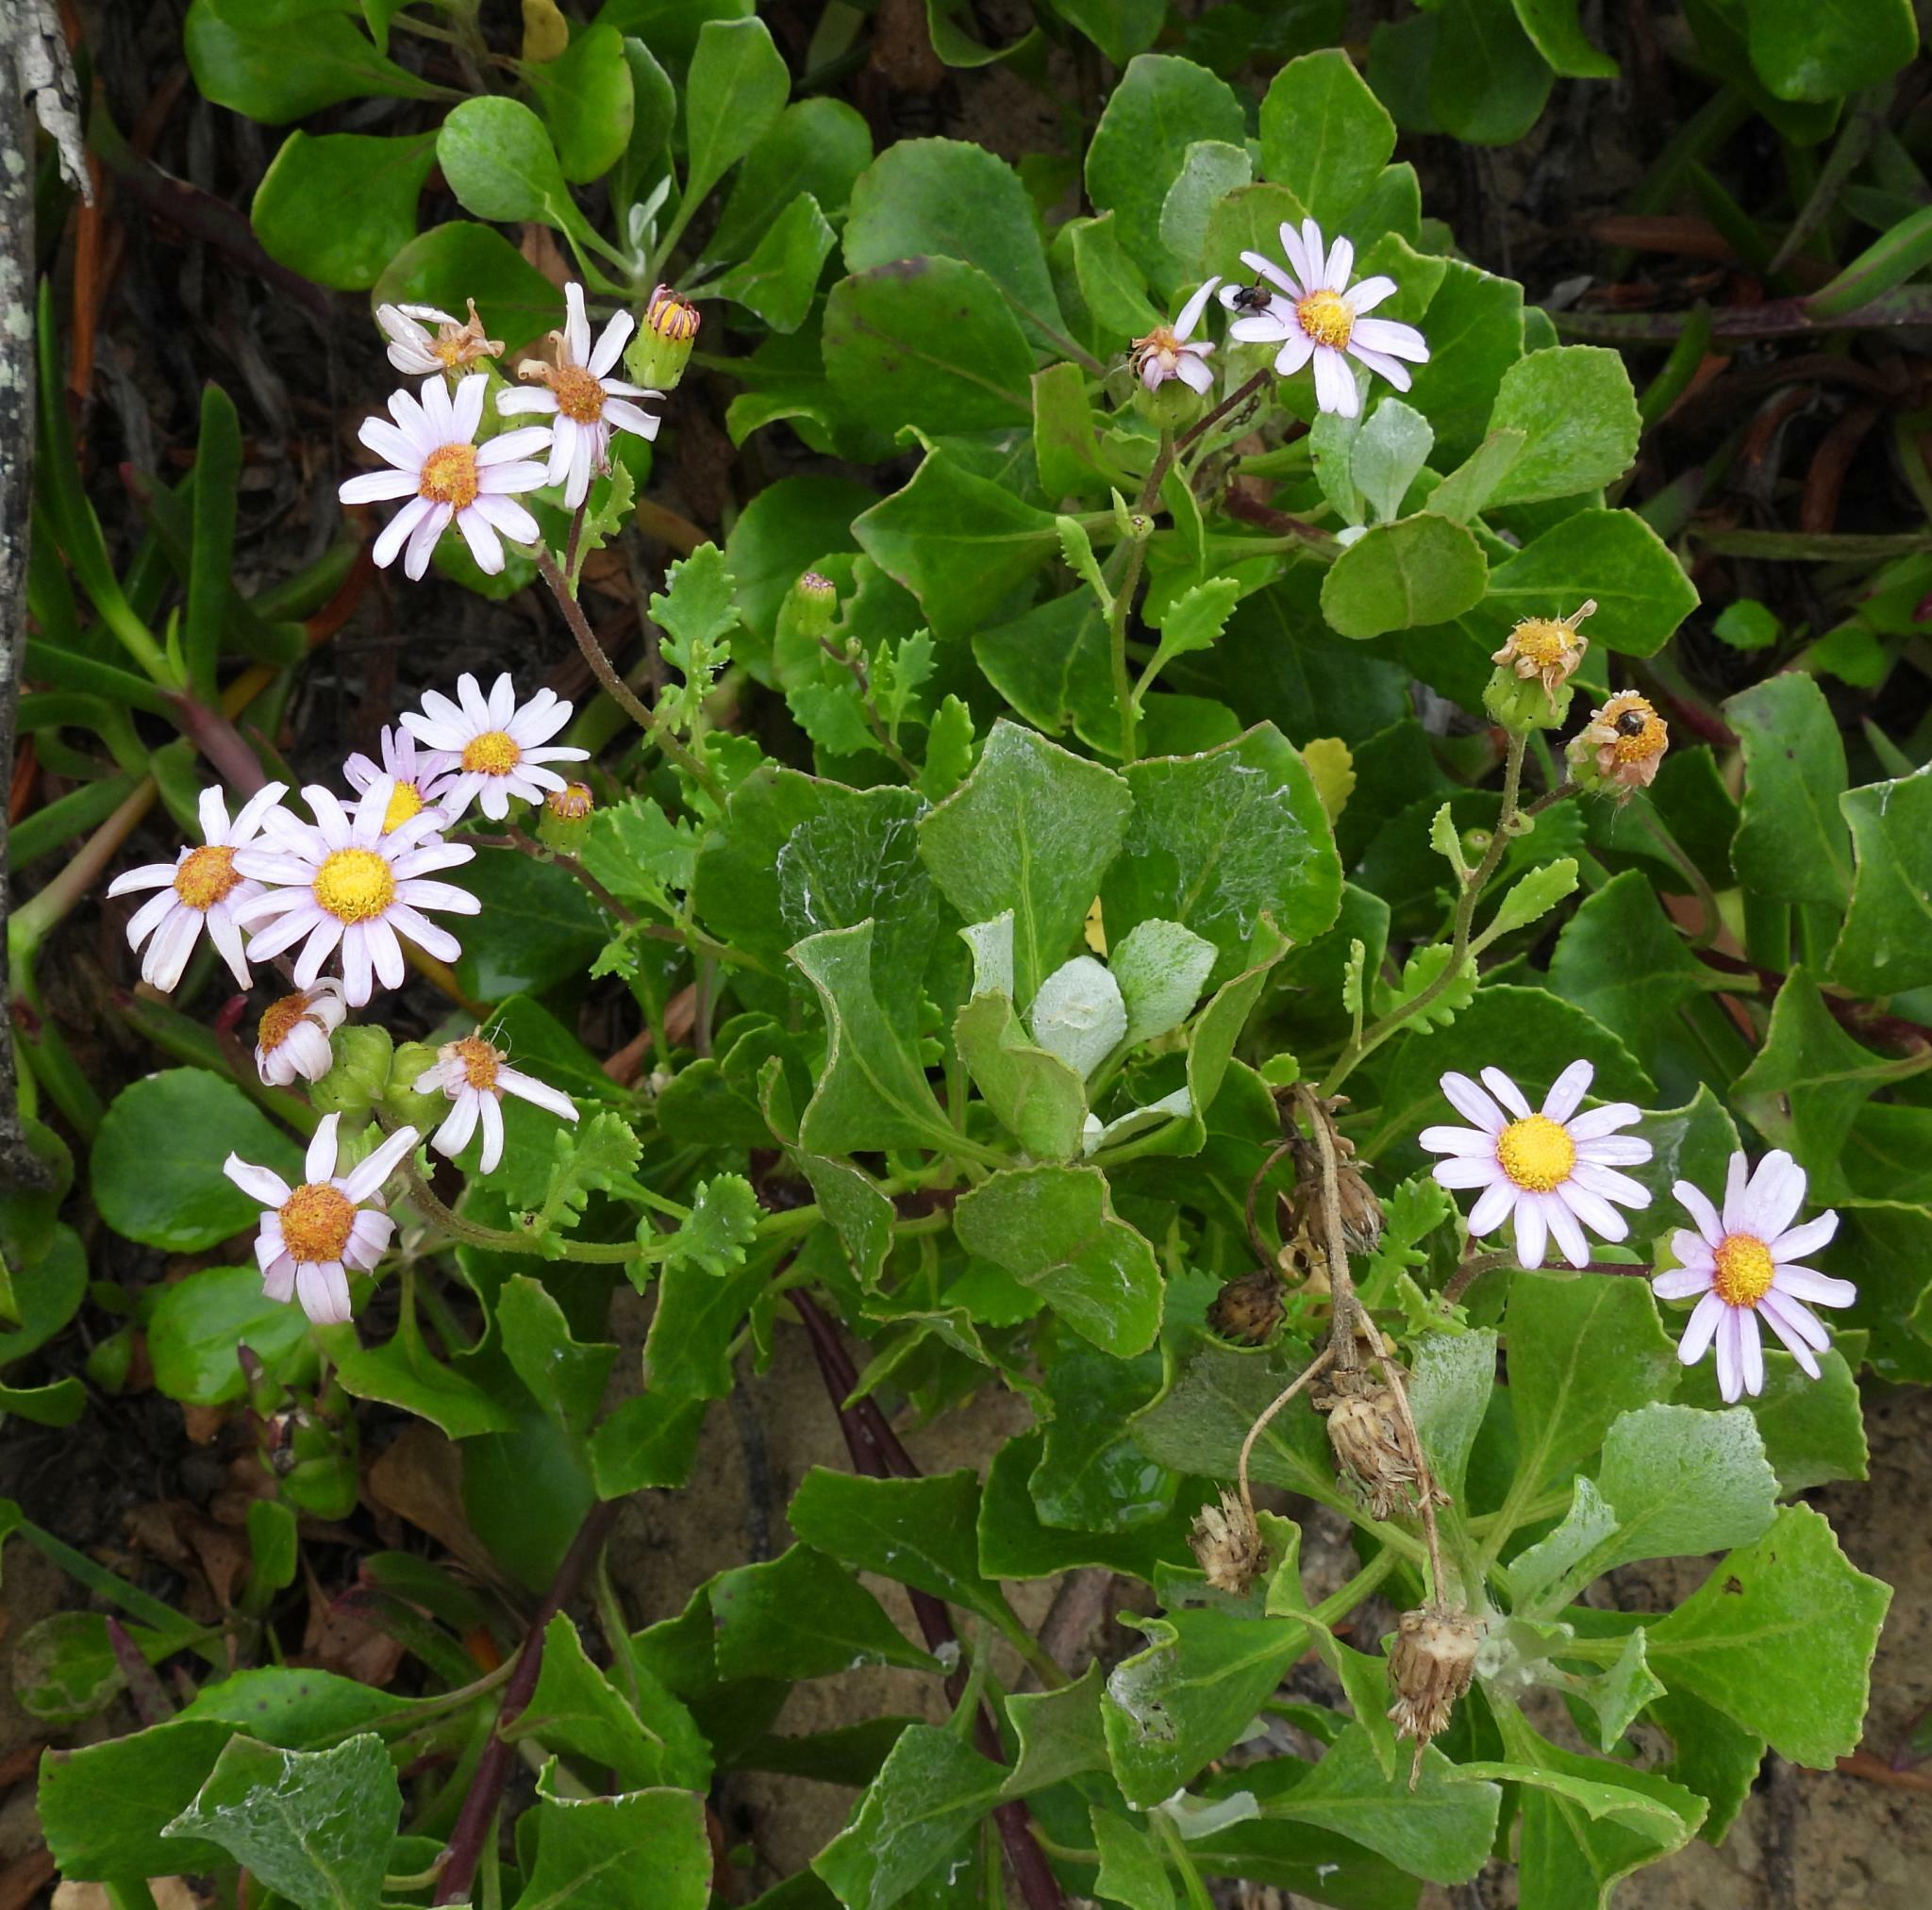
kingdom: Plantae
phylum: Tracheophyta
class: Magnoliopsida
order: Asterales
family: Asteraceae
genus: Senecio
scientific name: Senecio elegans
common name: Purple groundsel
